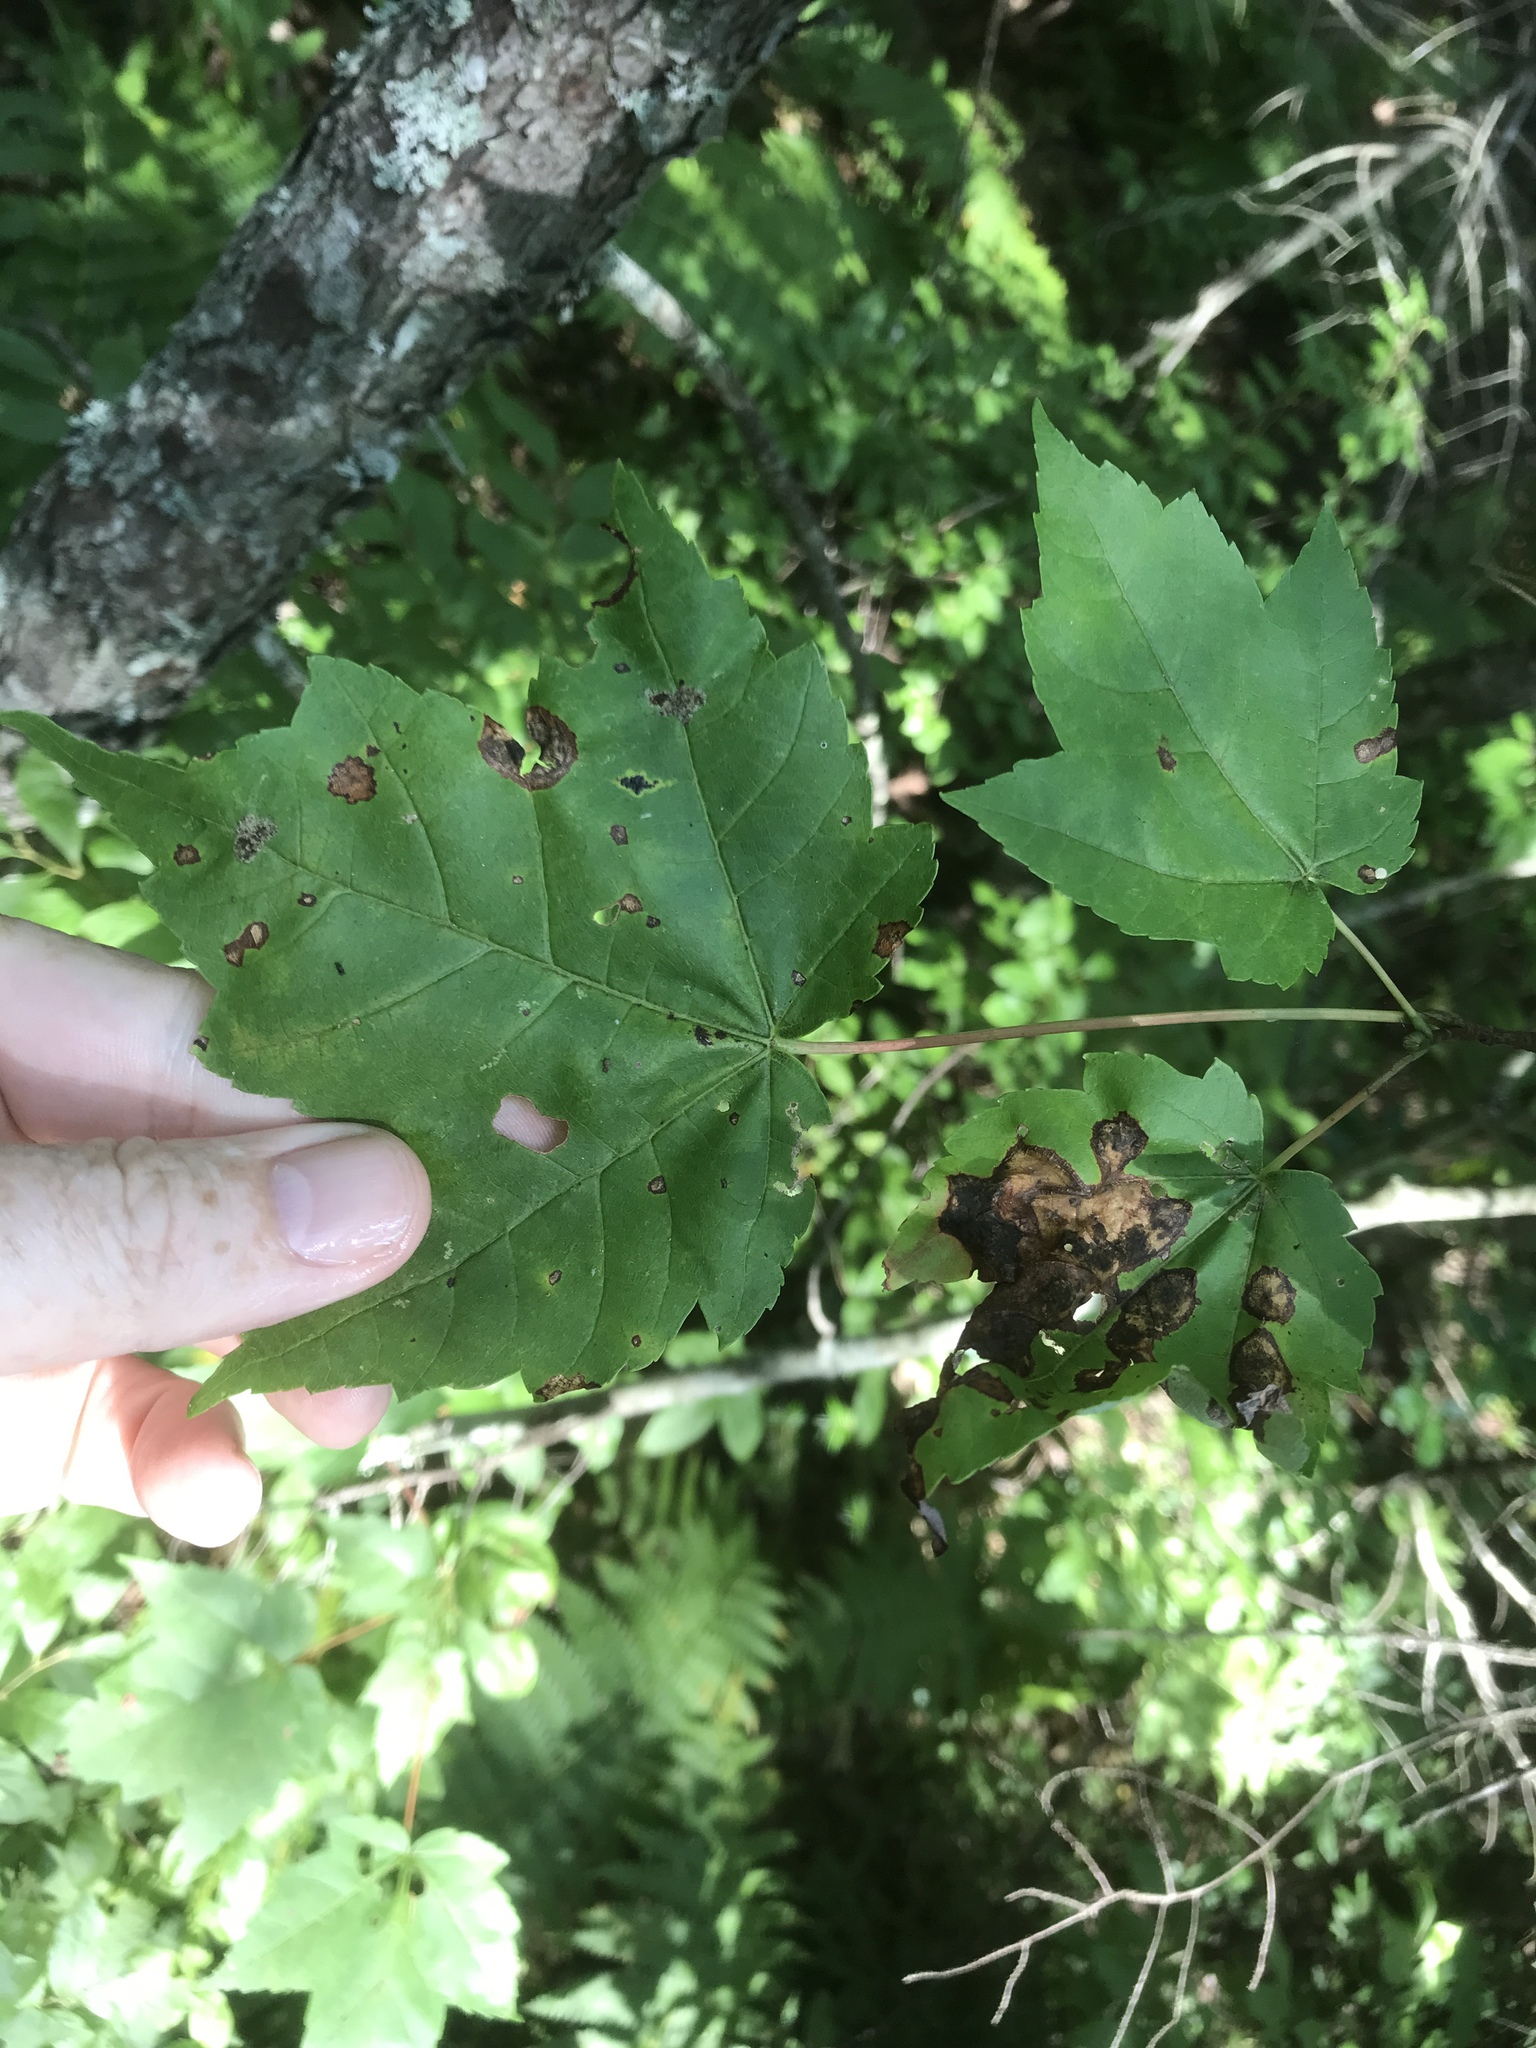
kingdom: Plantae
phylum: Tracheophyta
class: Magnoliopsida
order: Sapindales
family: Sapindaceae
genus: Acer
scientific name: Acer rubrum
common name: Red maple
